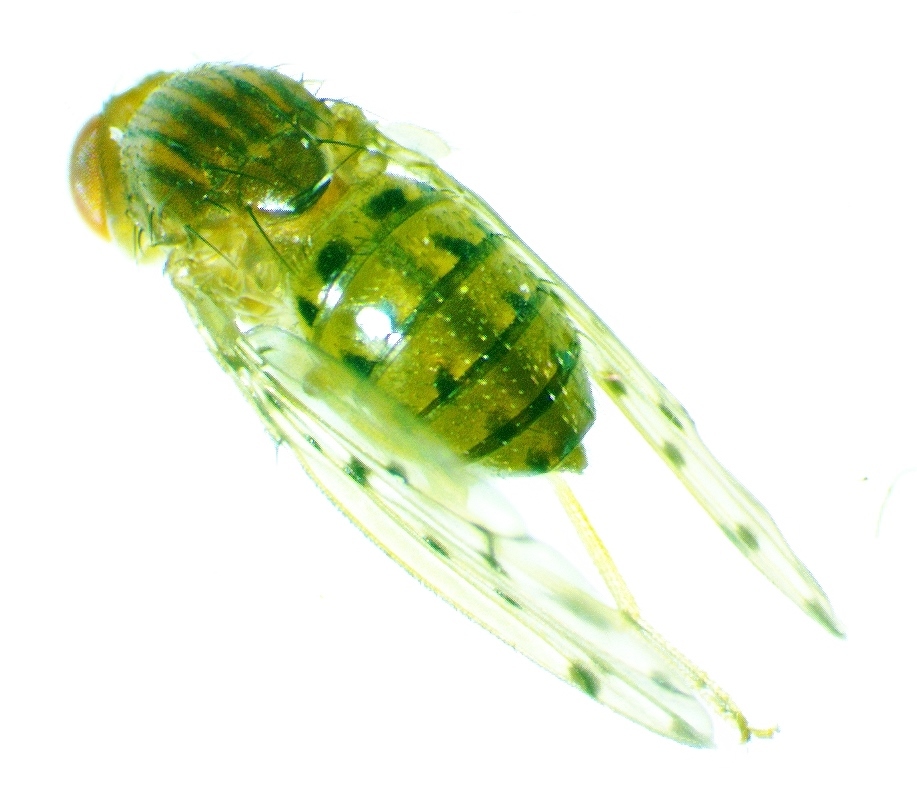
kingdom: Animalia
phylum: Arthropoda
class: Insecta
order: Diptera
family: Drosophilidae
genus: Drosophila
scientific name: Drosophila guttifera
